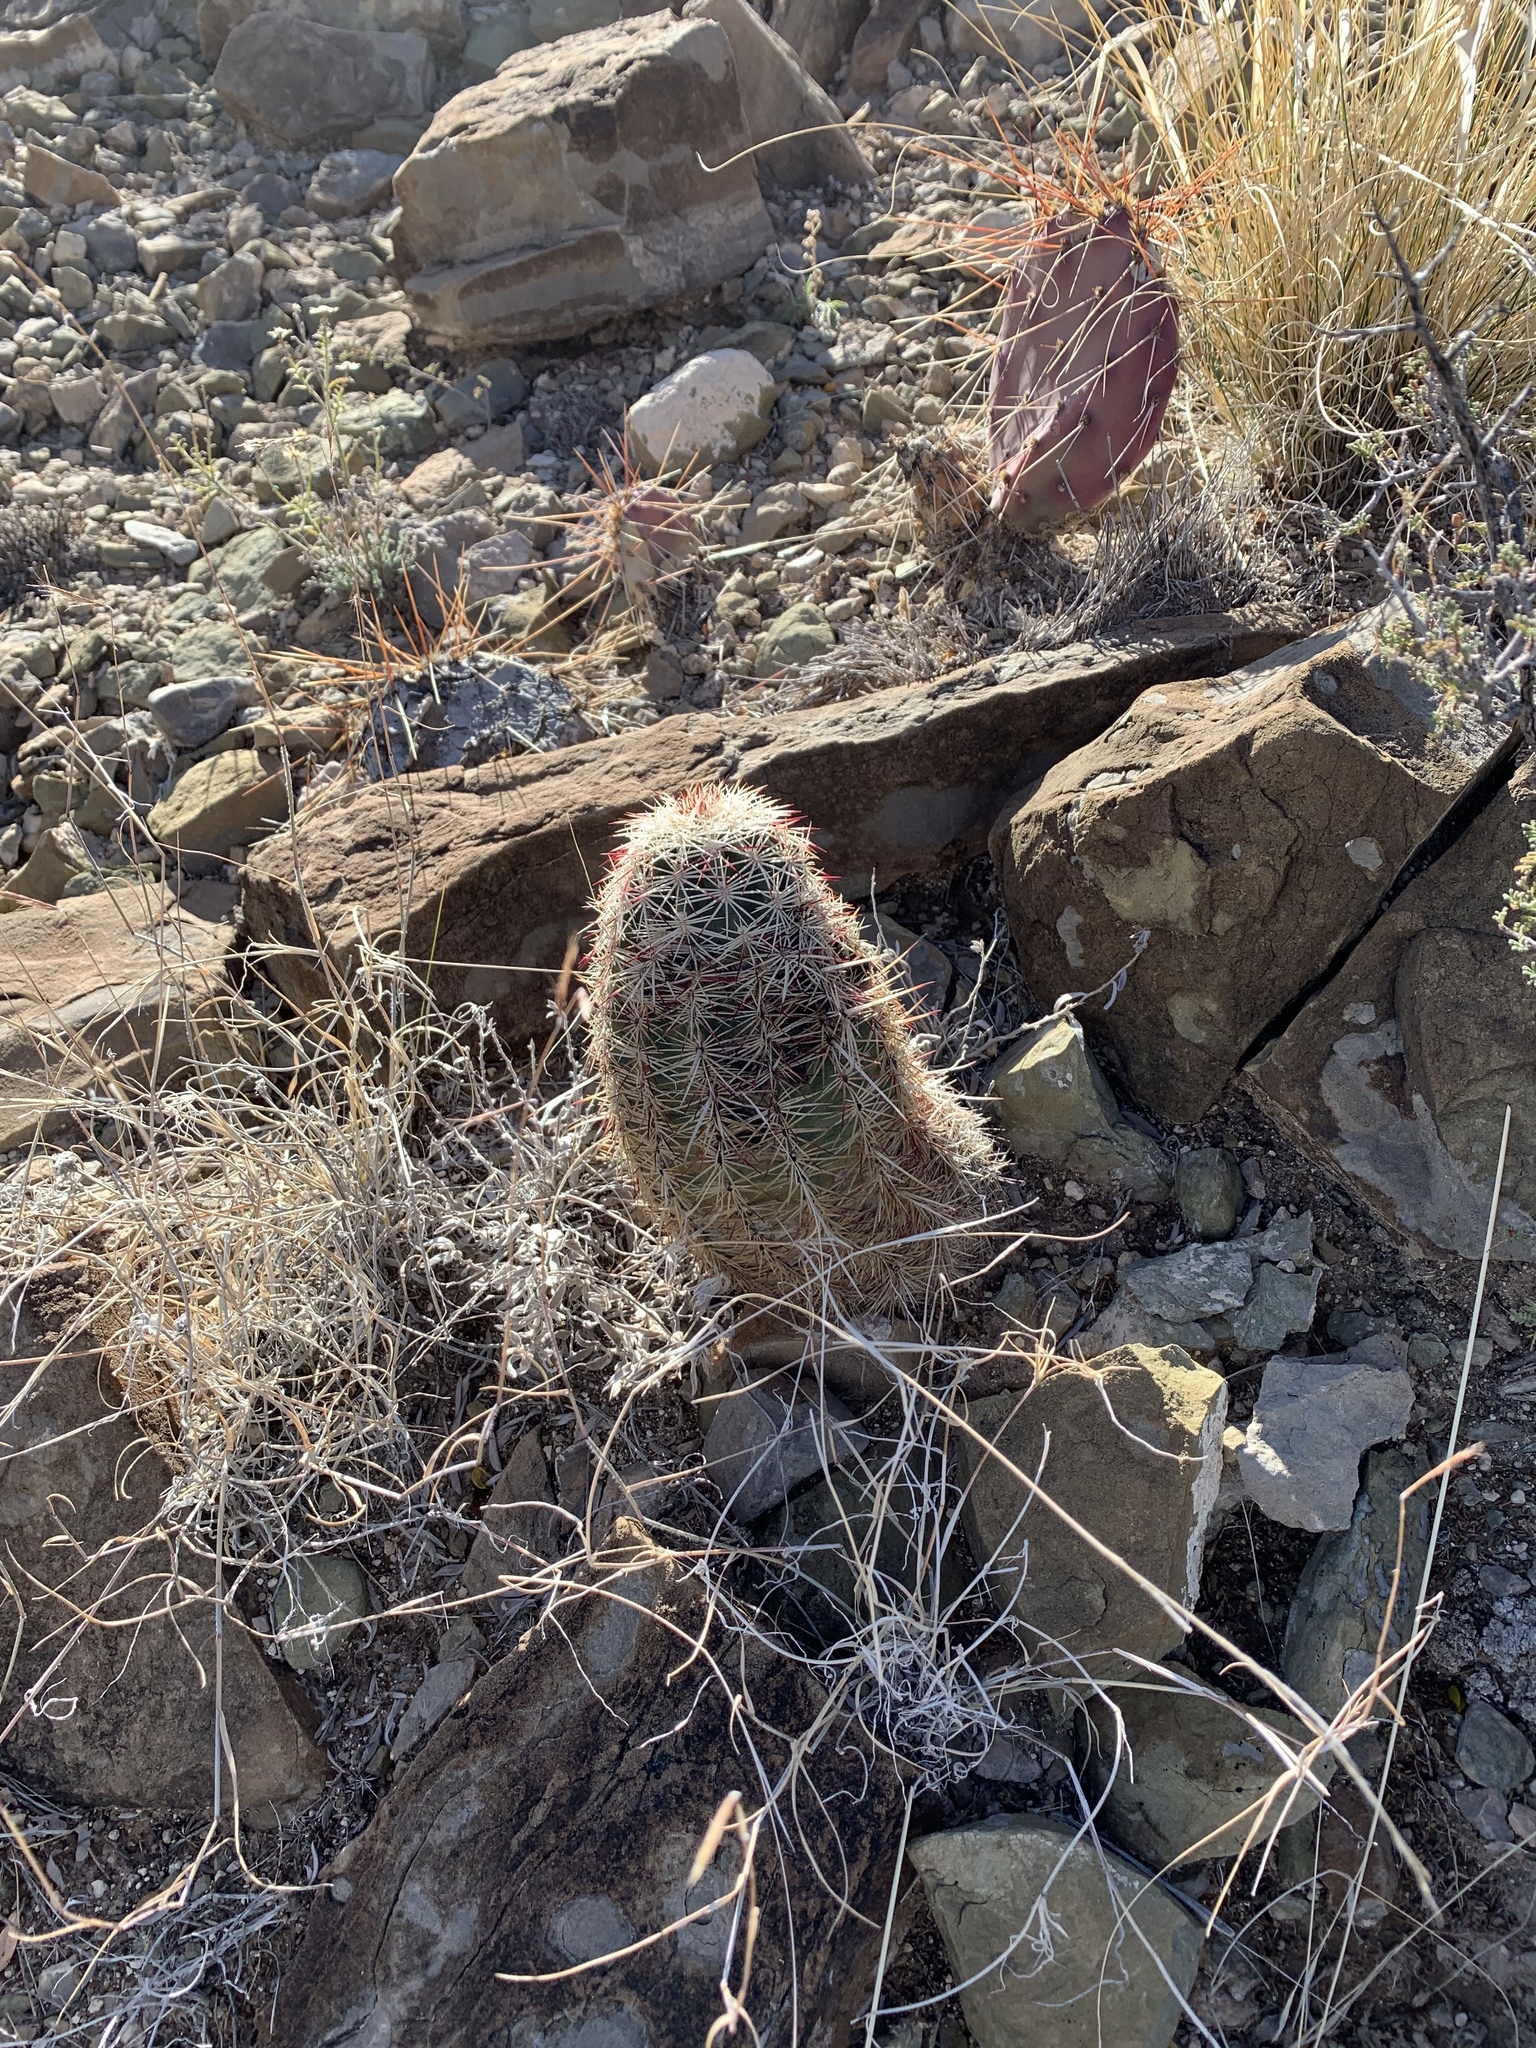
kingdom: Plantae
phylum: Tracheophyta
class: Magnoliopsida
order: Caryophyllales
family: Cactaceae
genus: Echinocereus
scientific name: Echinocereus viridiflorus
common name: Nylon hedgehog cactus
